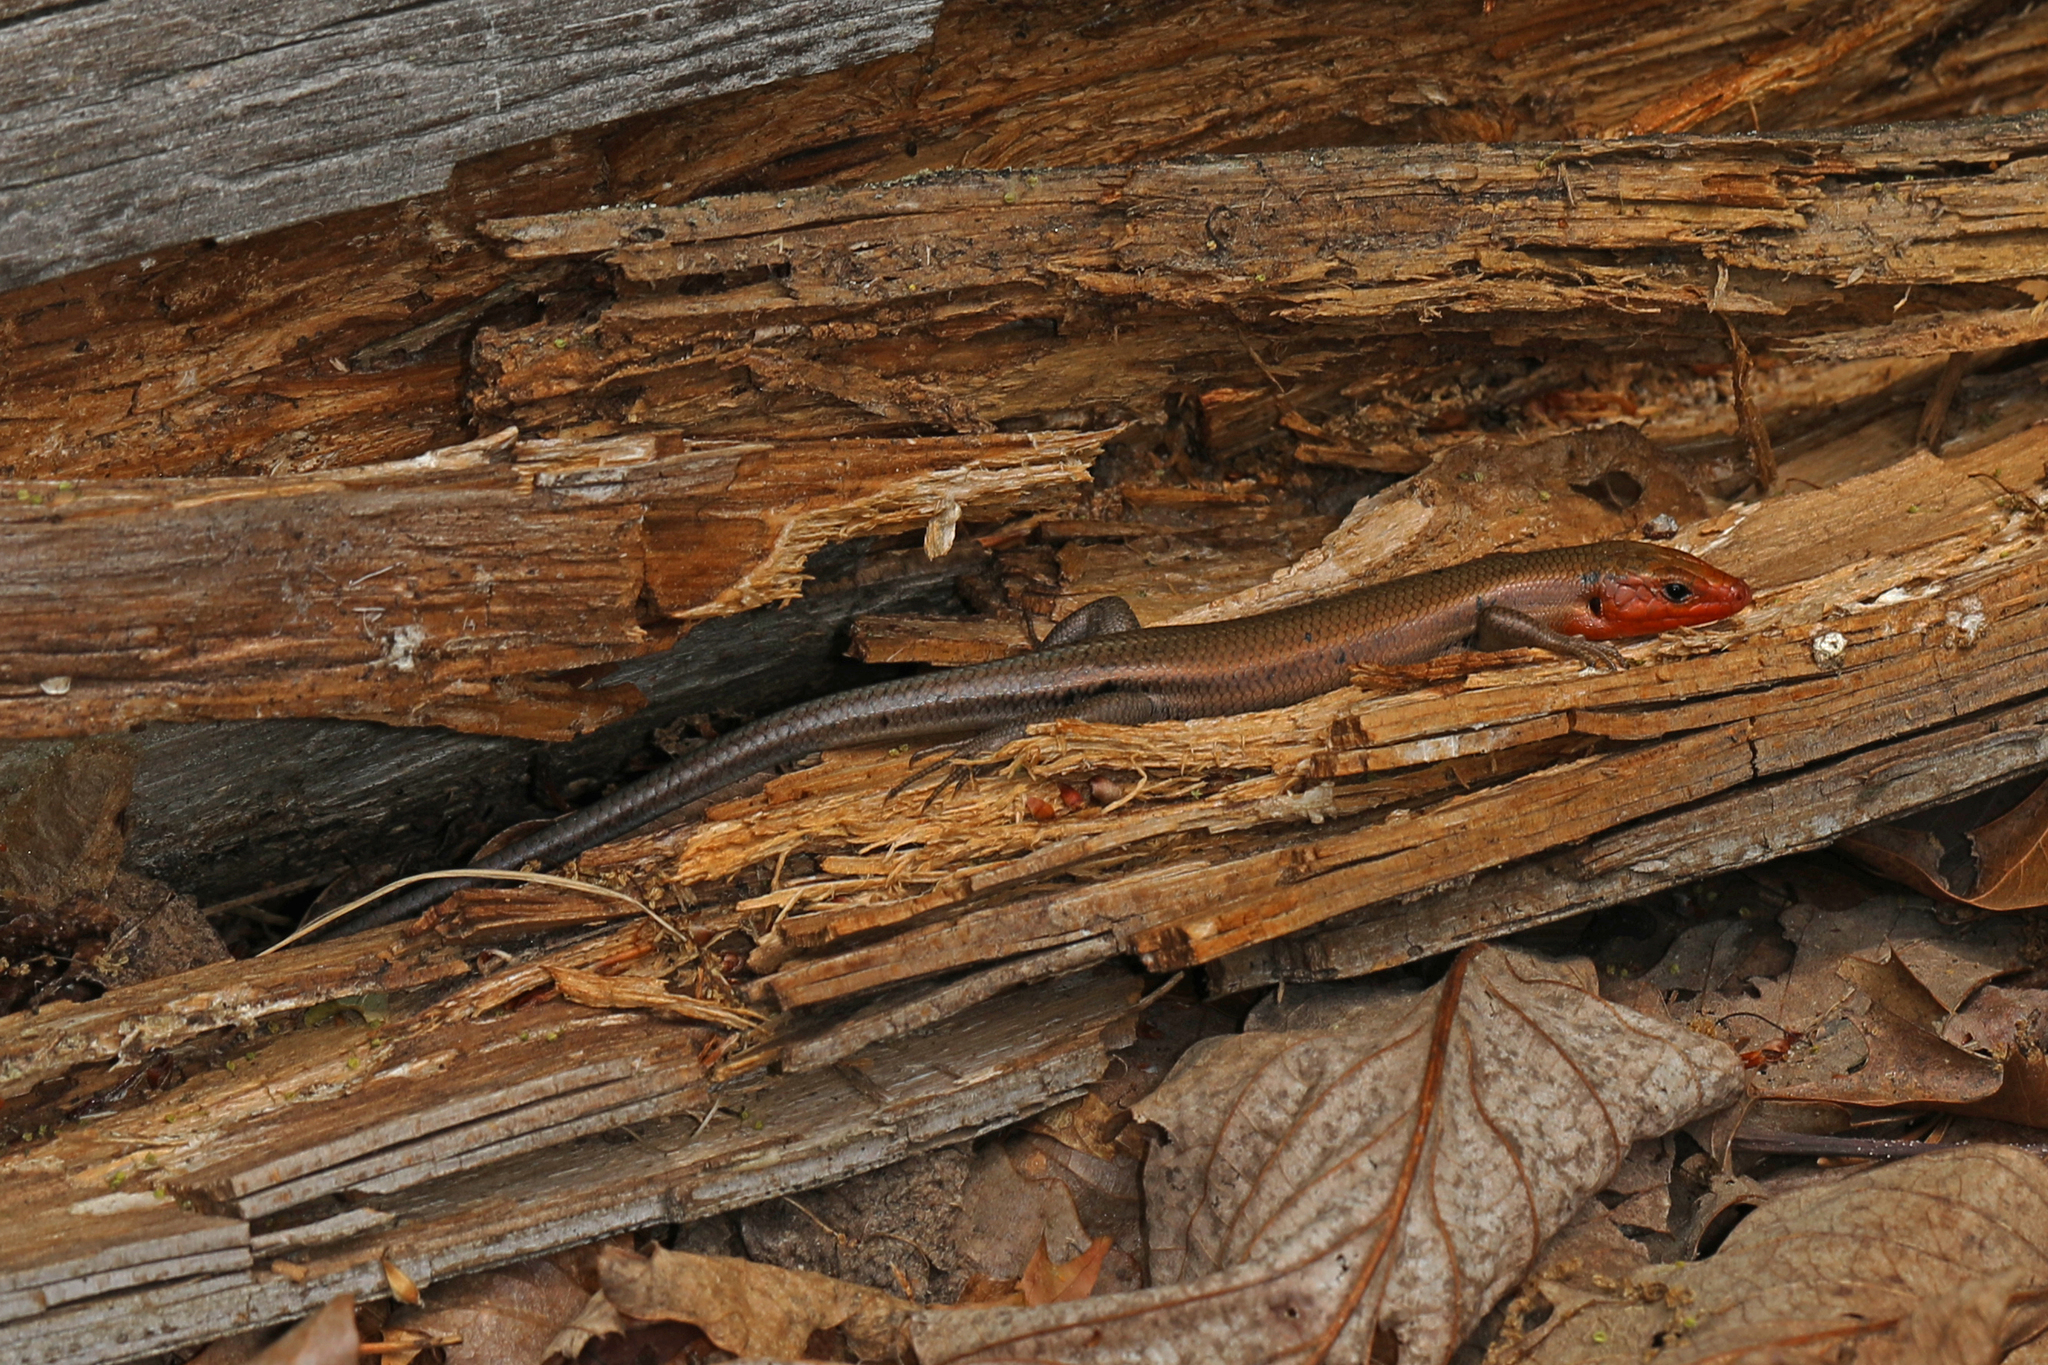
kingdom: Animalia
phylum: Chordata
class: Squamata
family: Scincidae
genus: Plestiodon
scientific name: Plestiodon fasciatus
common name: Five-lined skink
